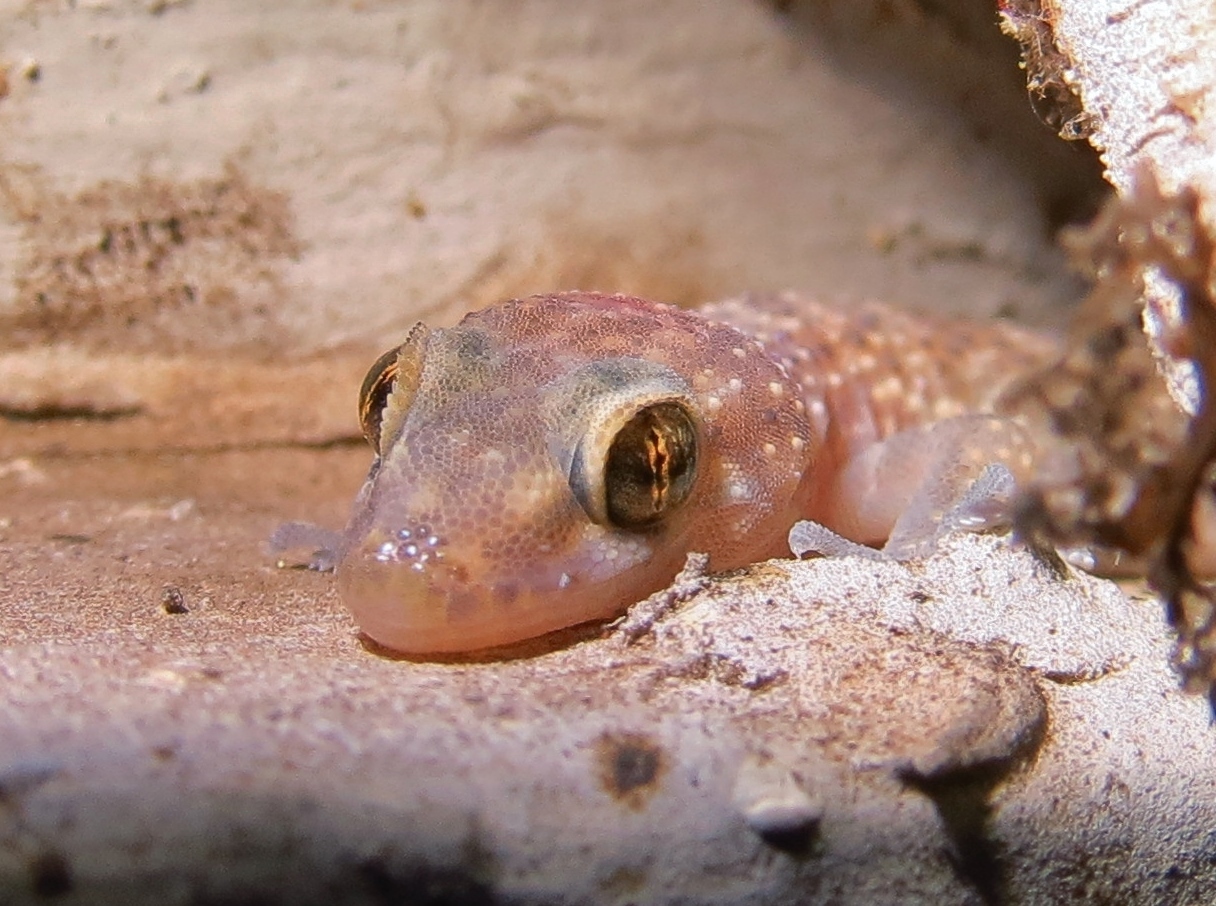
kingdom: Animalia
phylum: Chordata
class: Squamata
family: Gekkonidae
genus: Hemidactylus
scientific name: Hemidactylus turcicus
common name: Turkish gecko
